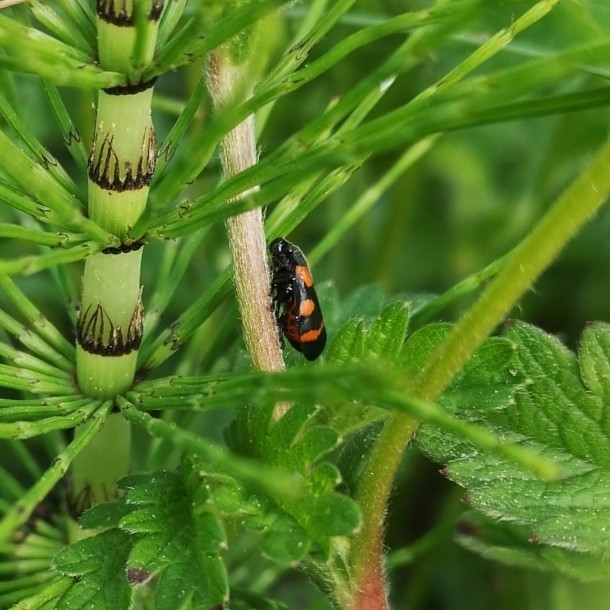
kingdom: Animalia
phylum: Arthropoda
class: Insecta
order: Hemiptera
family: Cercopidae
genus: Cercopis
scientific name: Cercopis sanguinolenta
